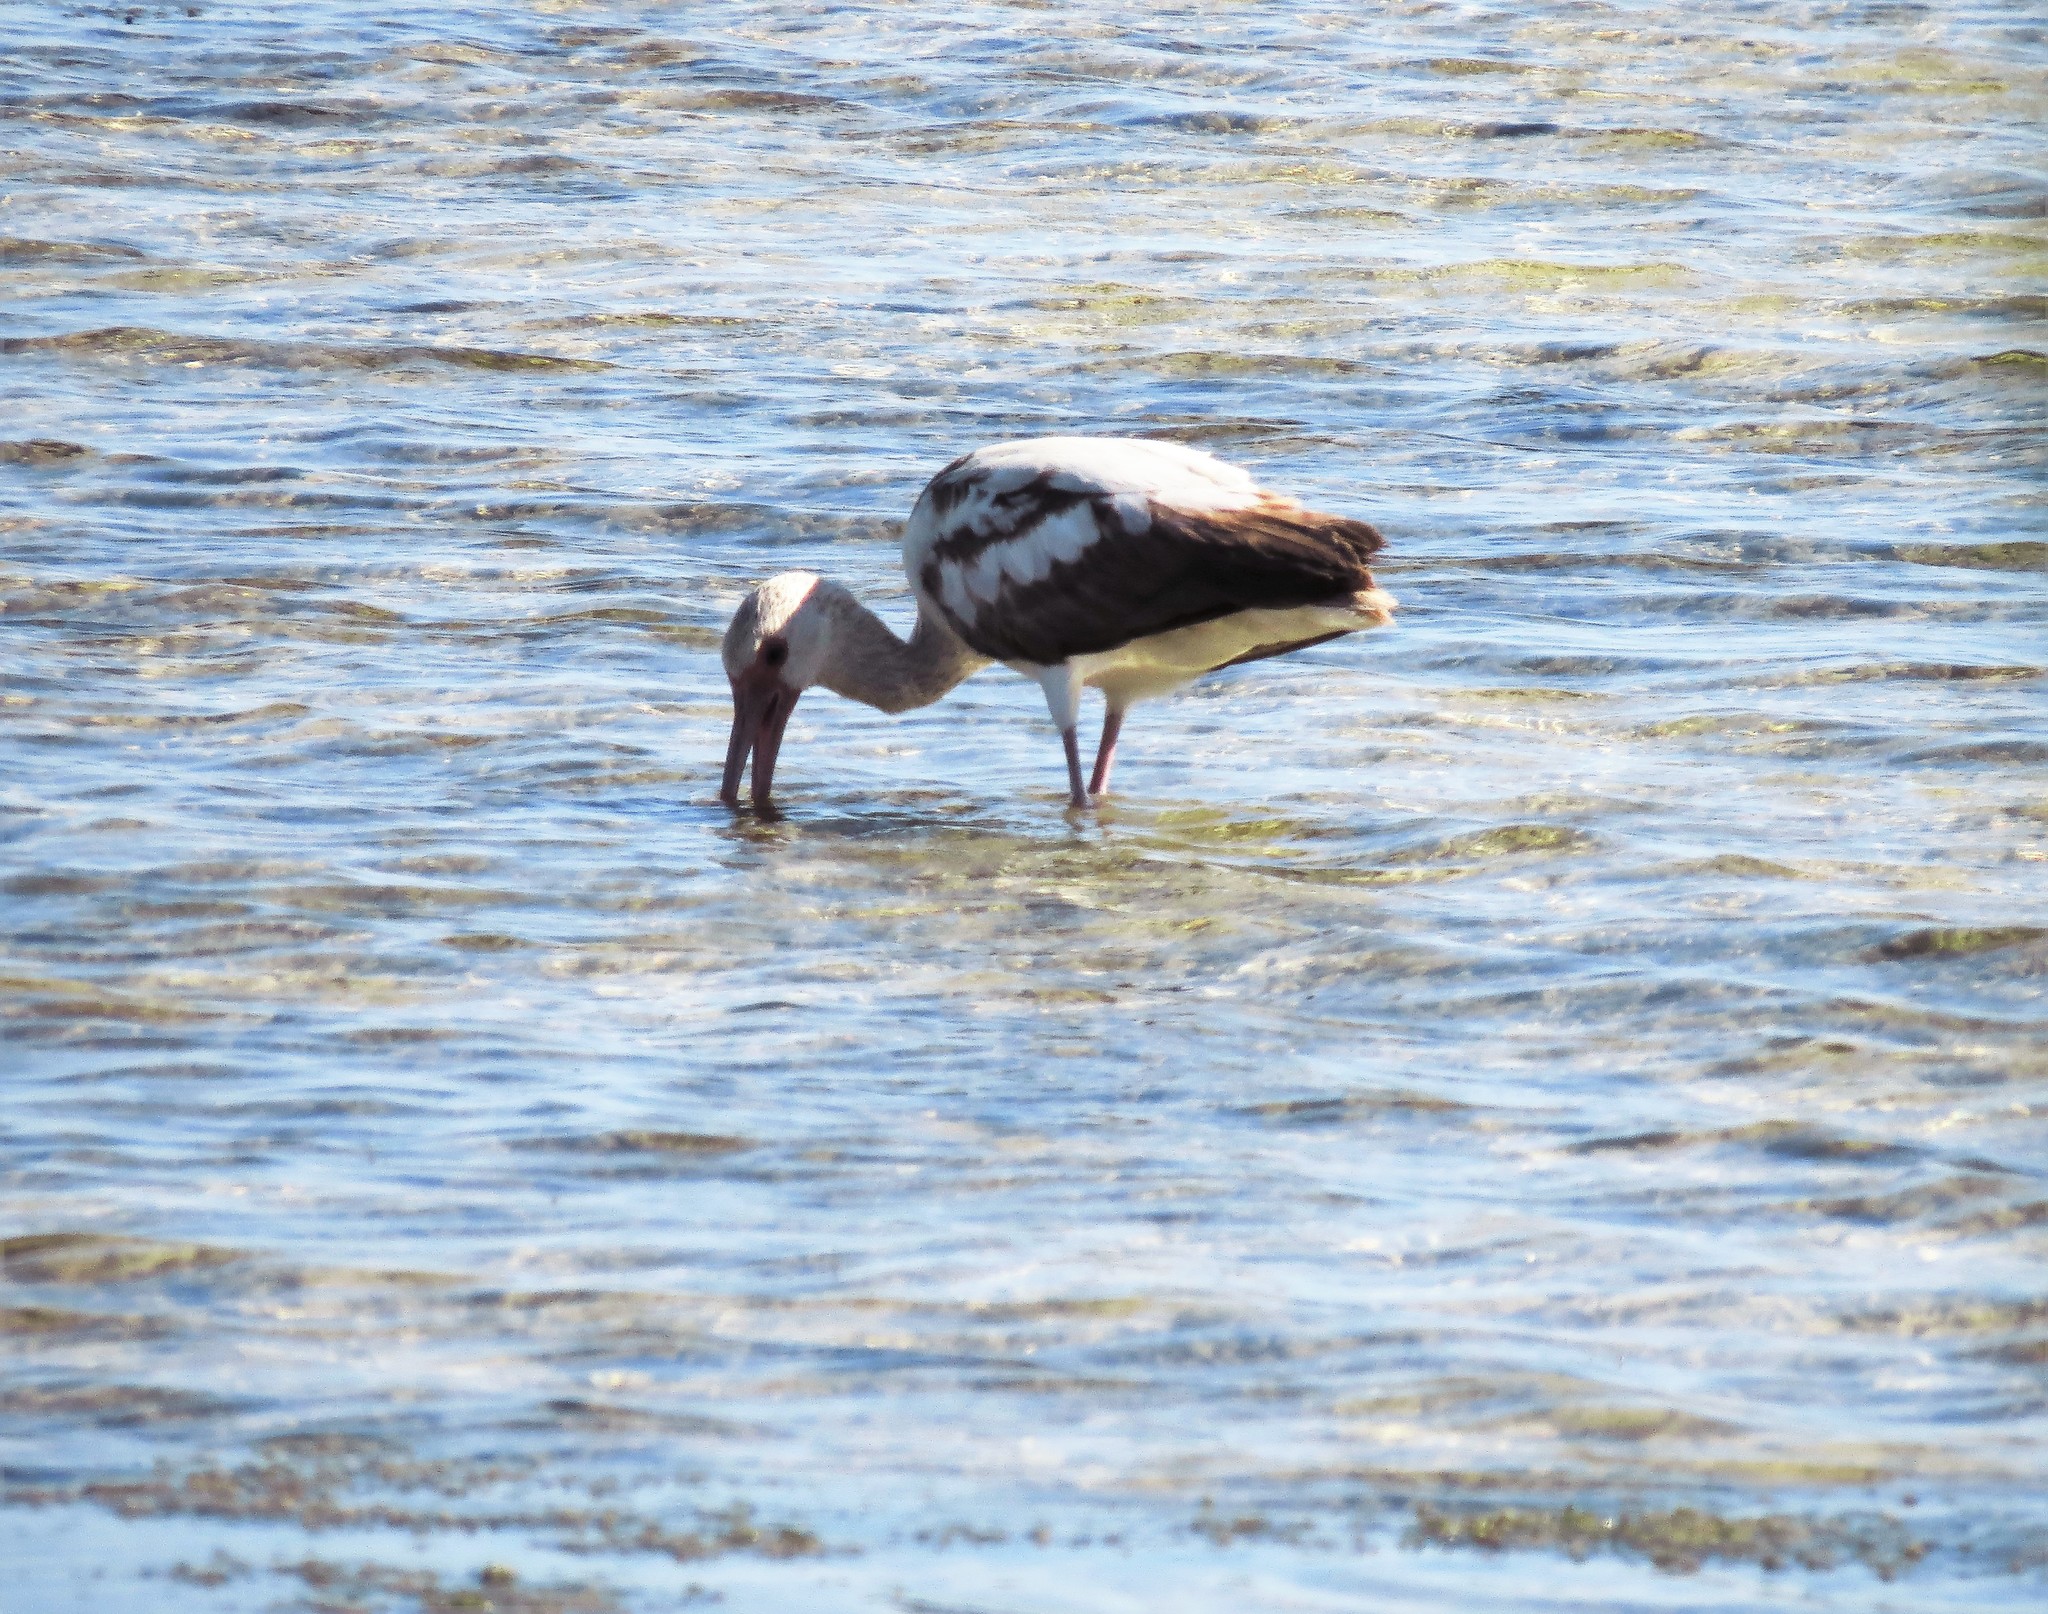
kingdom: Animalia
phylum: Chordata
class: Aves
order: Pelecaniformes
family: Threskiornithidae
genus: Eudocimus
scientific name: Eudocimus albus
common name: White ibis
